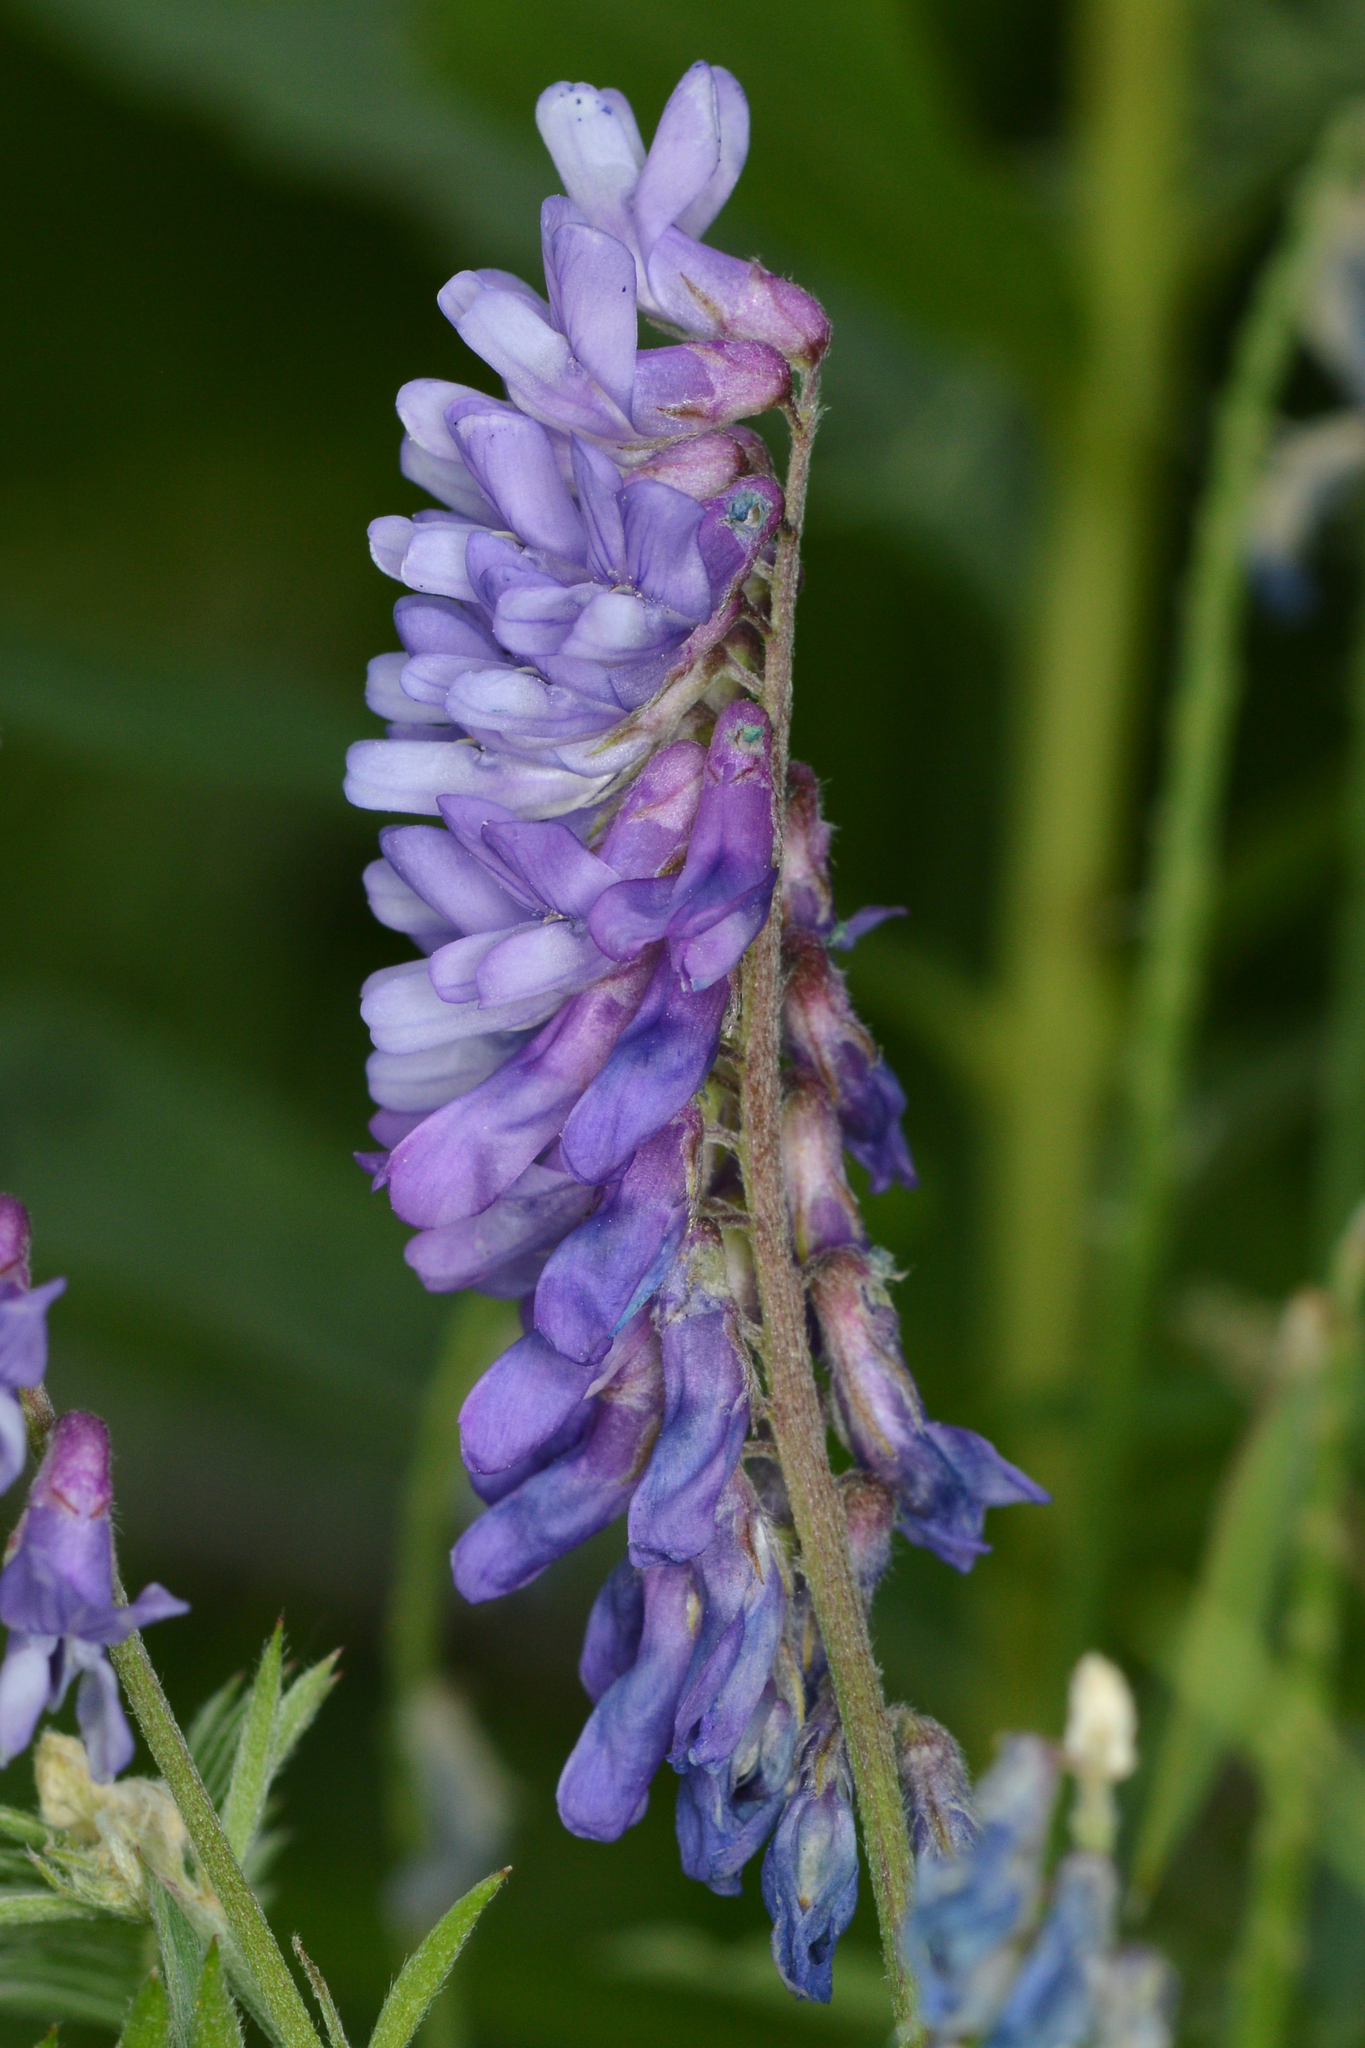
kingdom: Plantae
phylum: Tracheophyta
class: Magnoliopsida
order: Fabales
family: Fabaceae
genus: Vicia
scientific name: Vicia cracca
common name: Bird vetch
